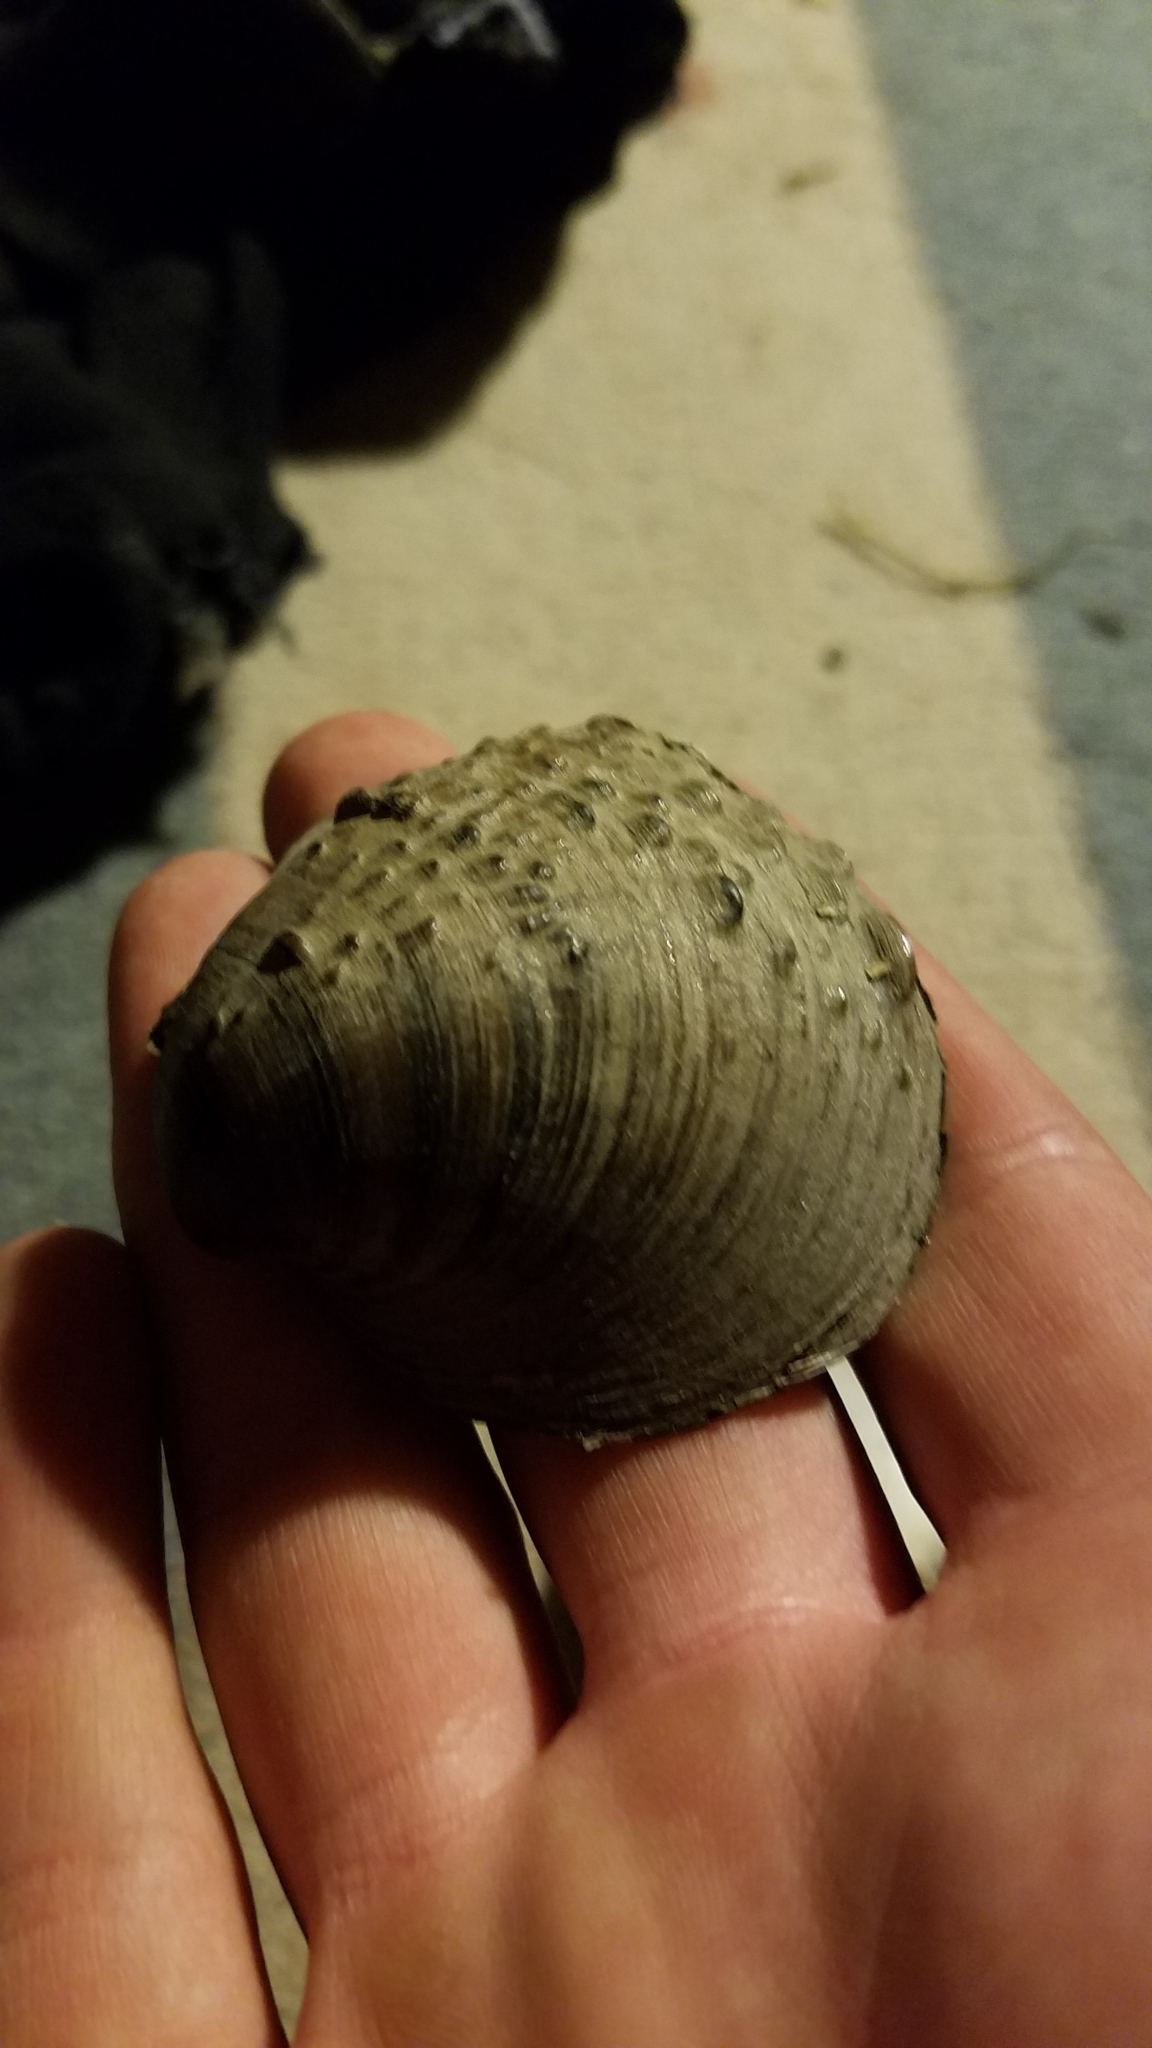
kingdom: Animalia
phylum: Mollusca
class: Bivalvia
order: Unionida
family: Unionidae
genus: Cyclonaias
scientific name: Cyclonaias pustulosa
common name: Pimpleback
